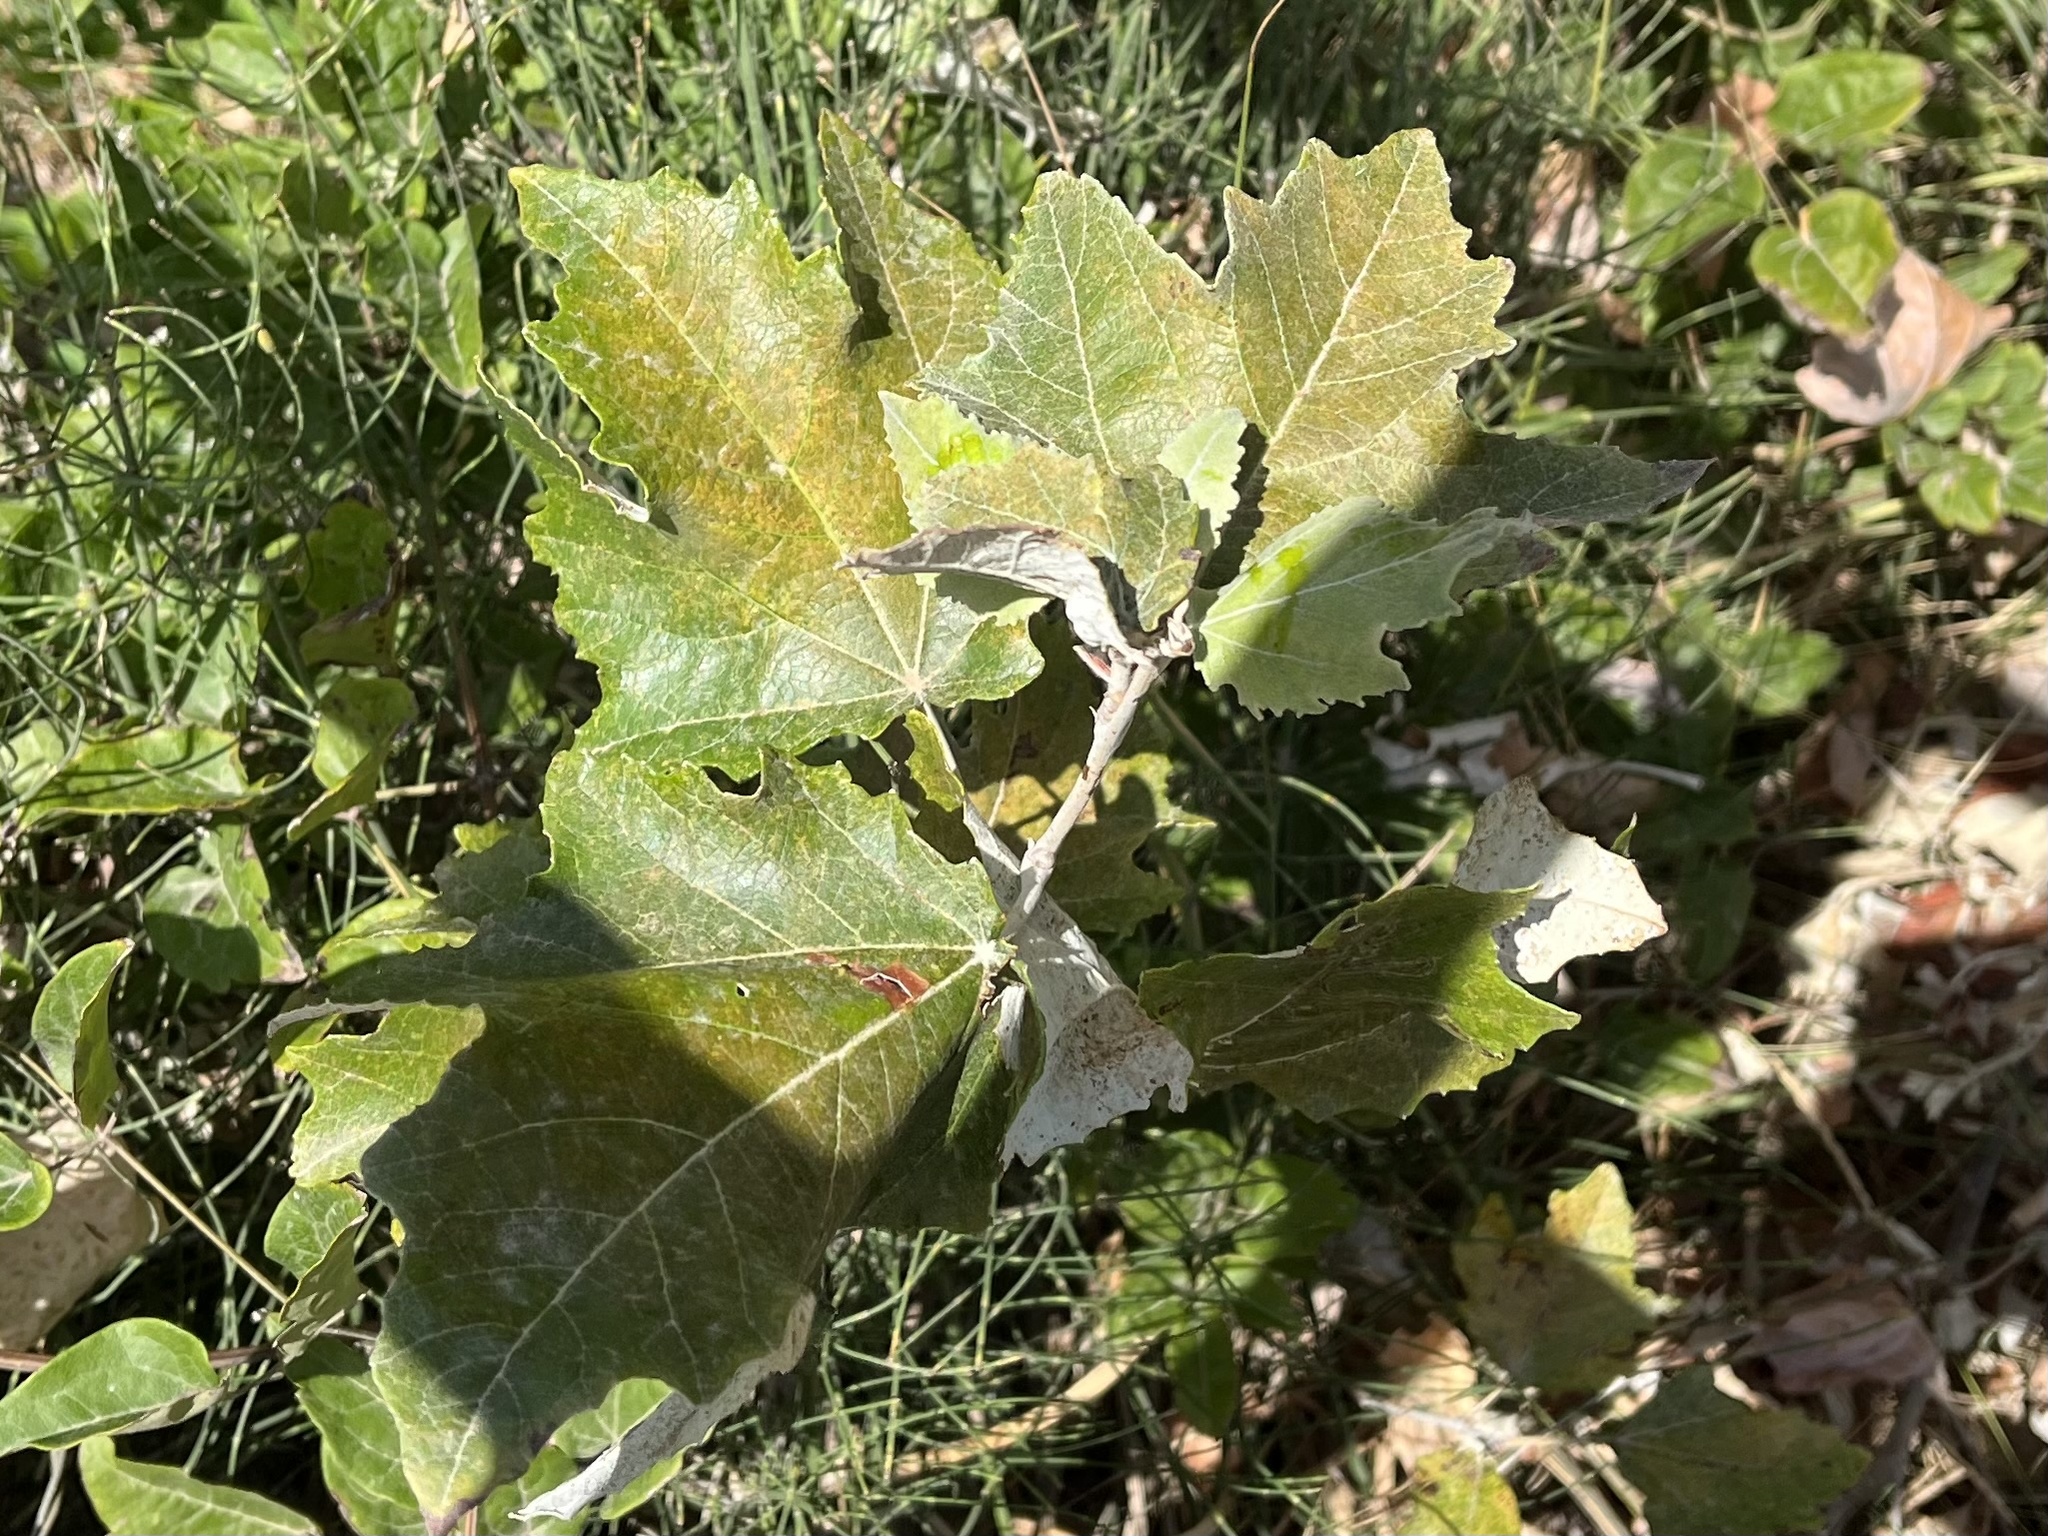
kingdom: Plantae
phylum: Tracheophyta
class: Magnoliopsida
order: Malpighiales
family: Salicaceae
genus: Populus
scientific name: Populus alba
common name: White poplar
